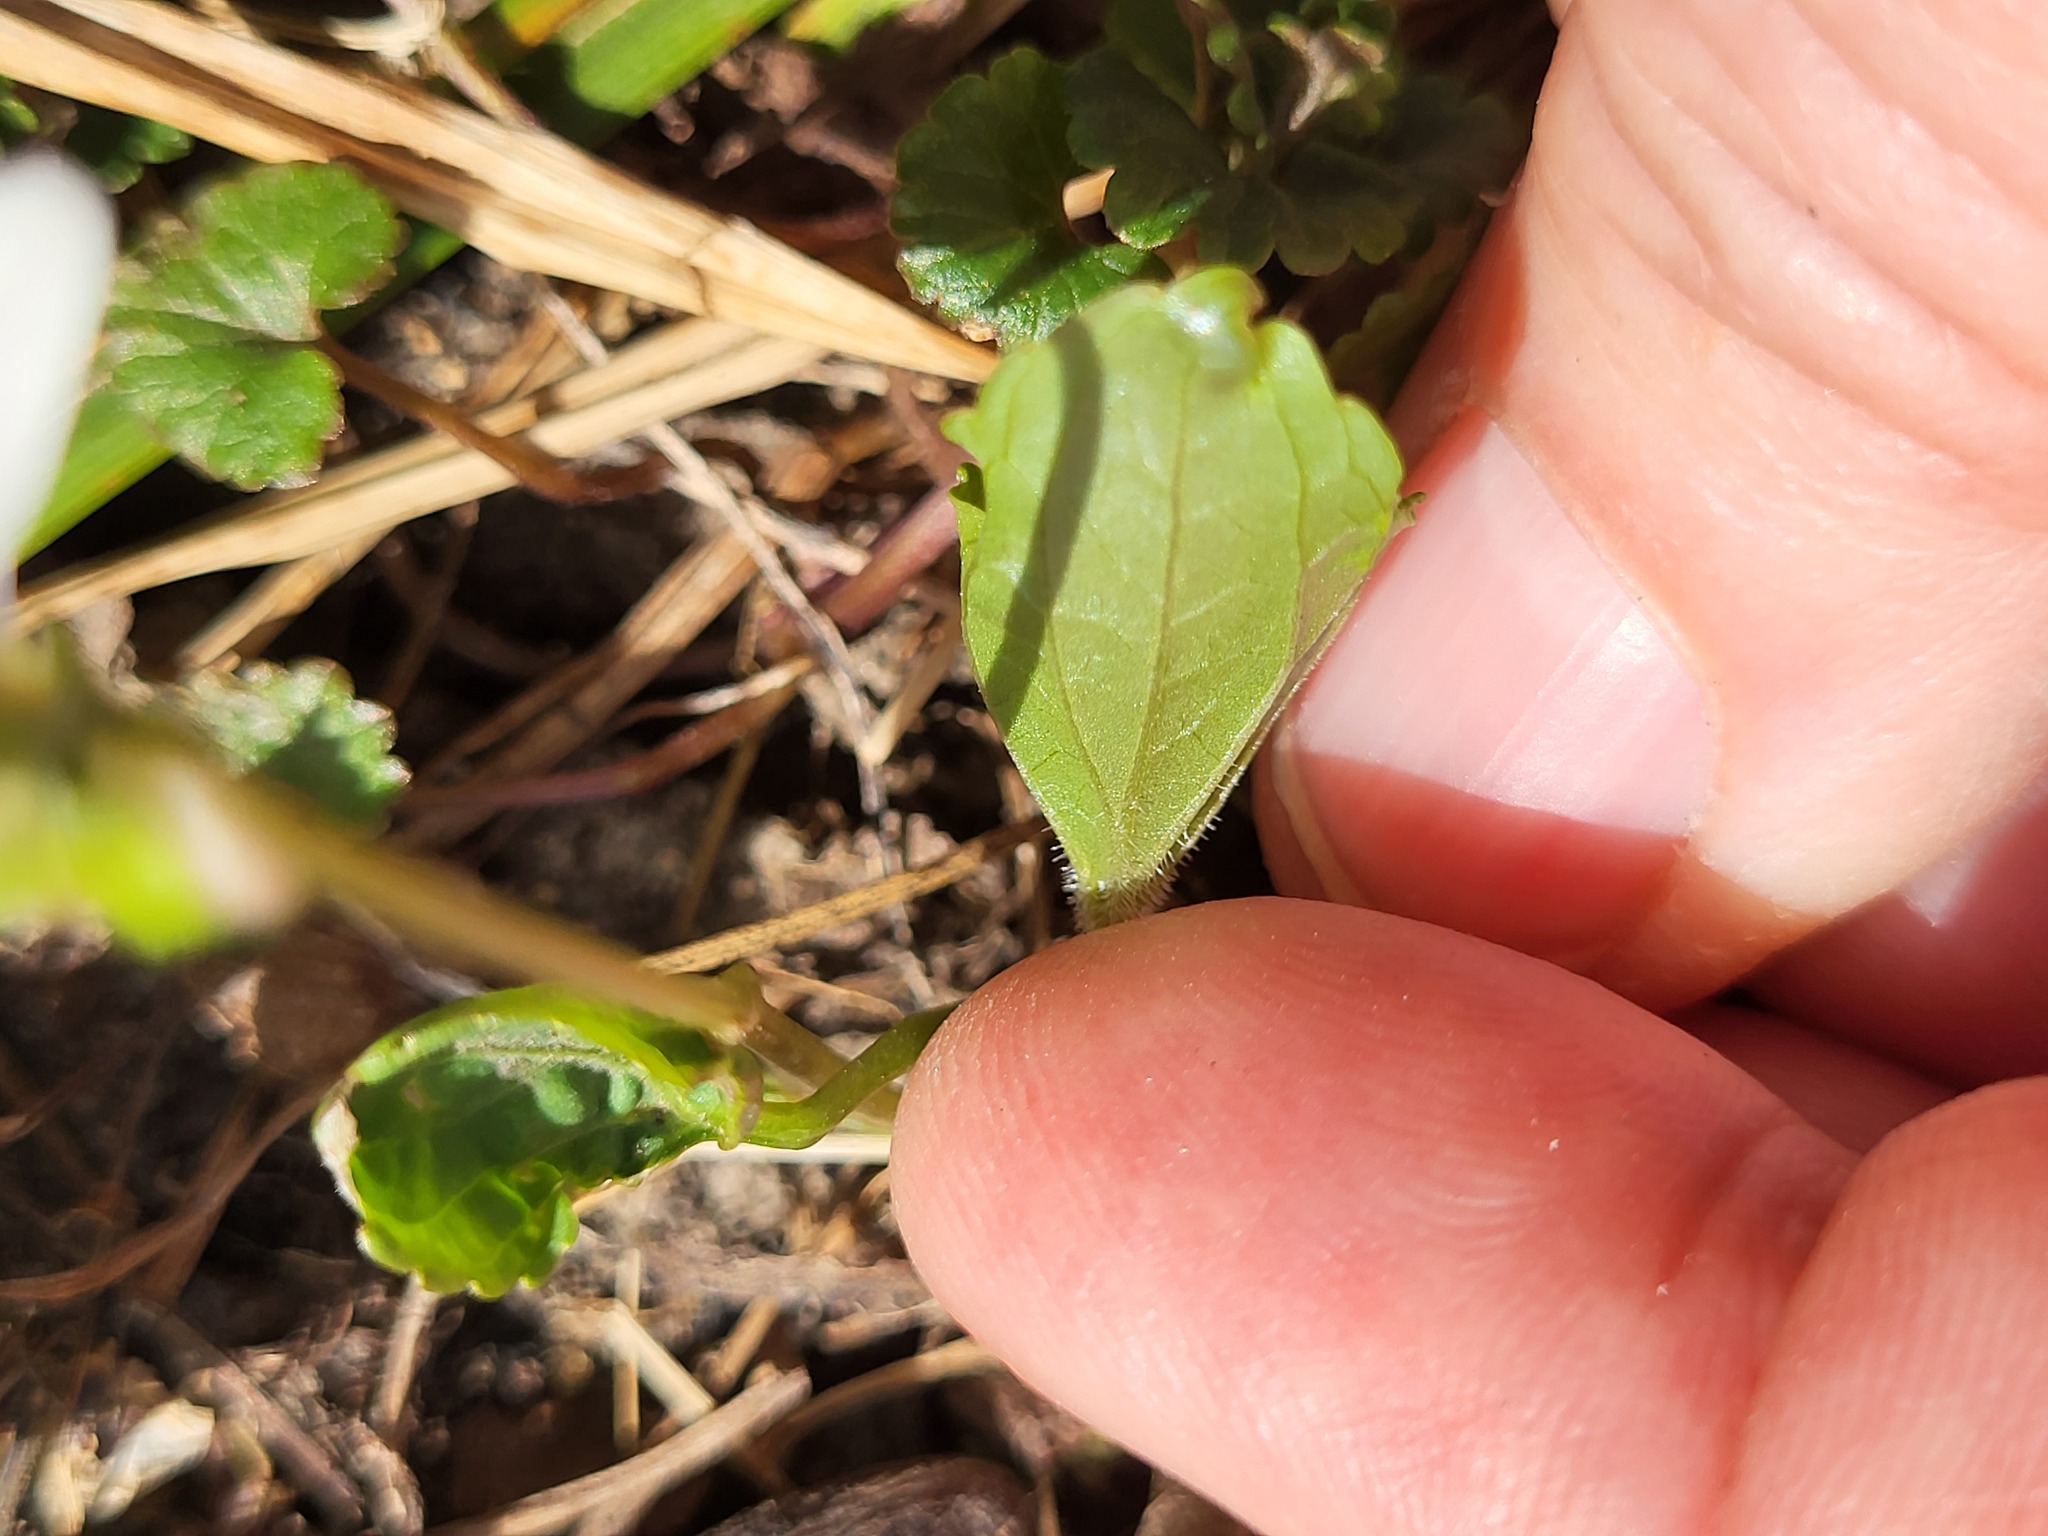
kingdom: Plantae
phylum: Tracheophyta
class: Magnoliopsida
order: Malpighiales
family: Violaceae
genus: Viola
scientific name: Viola sororia
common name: Dooryard violet
